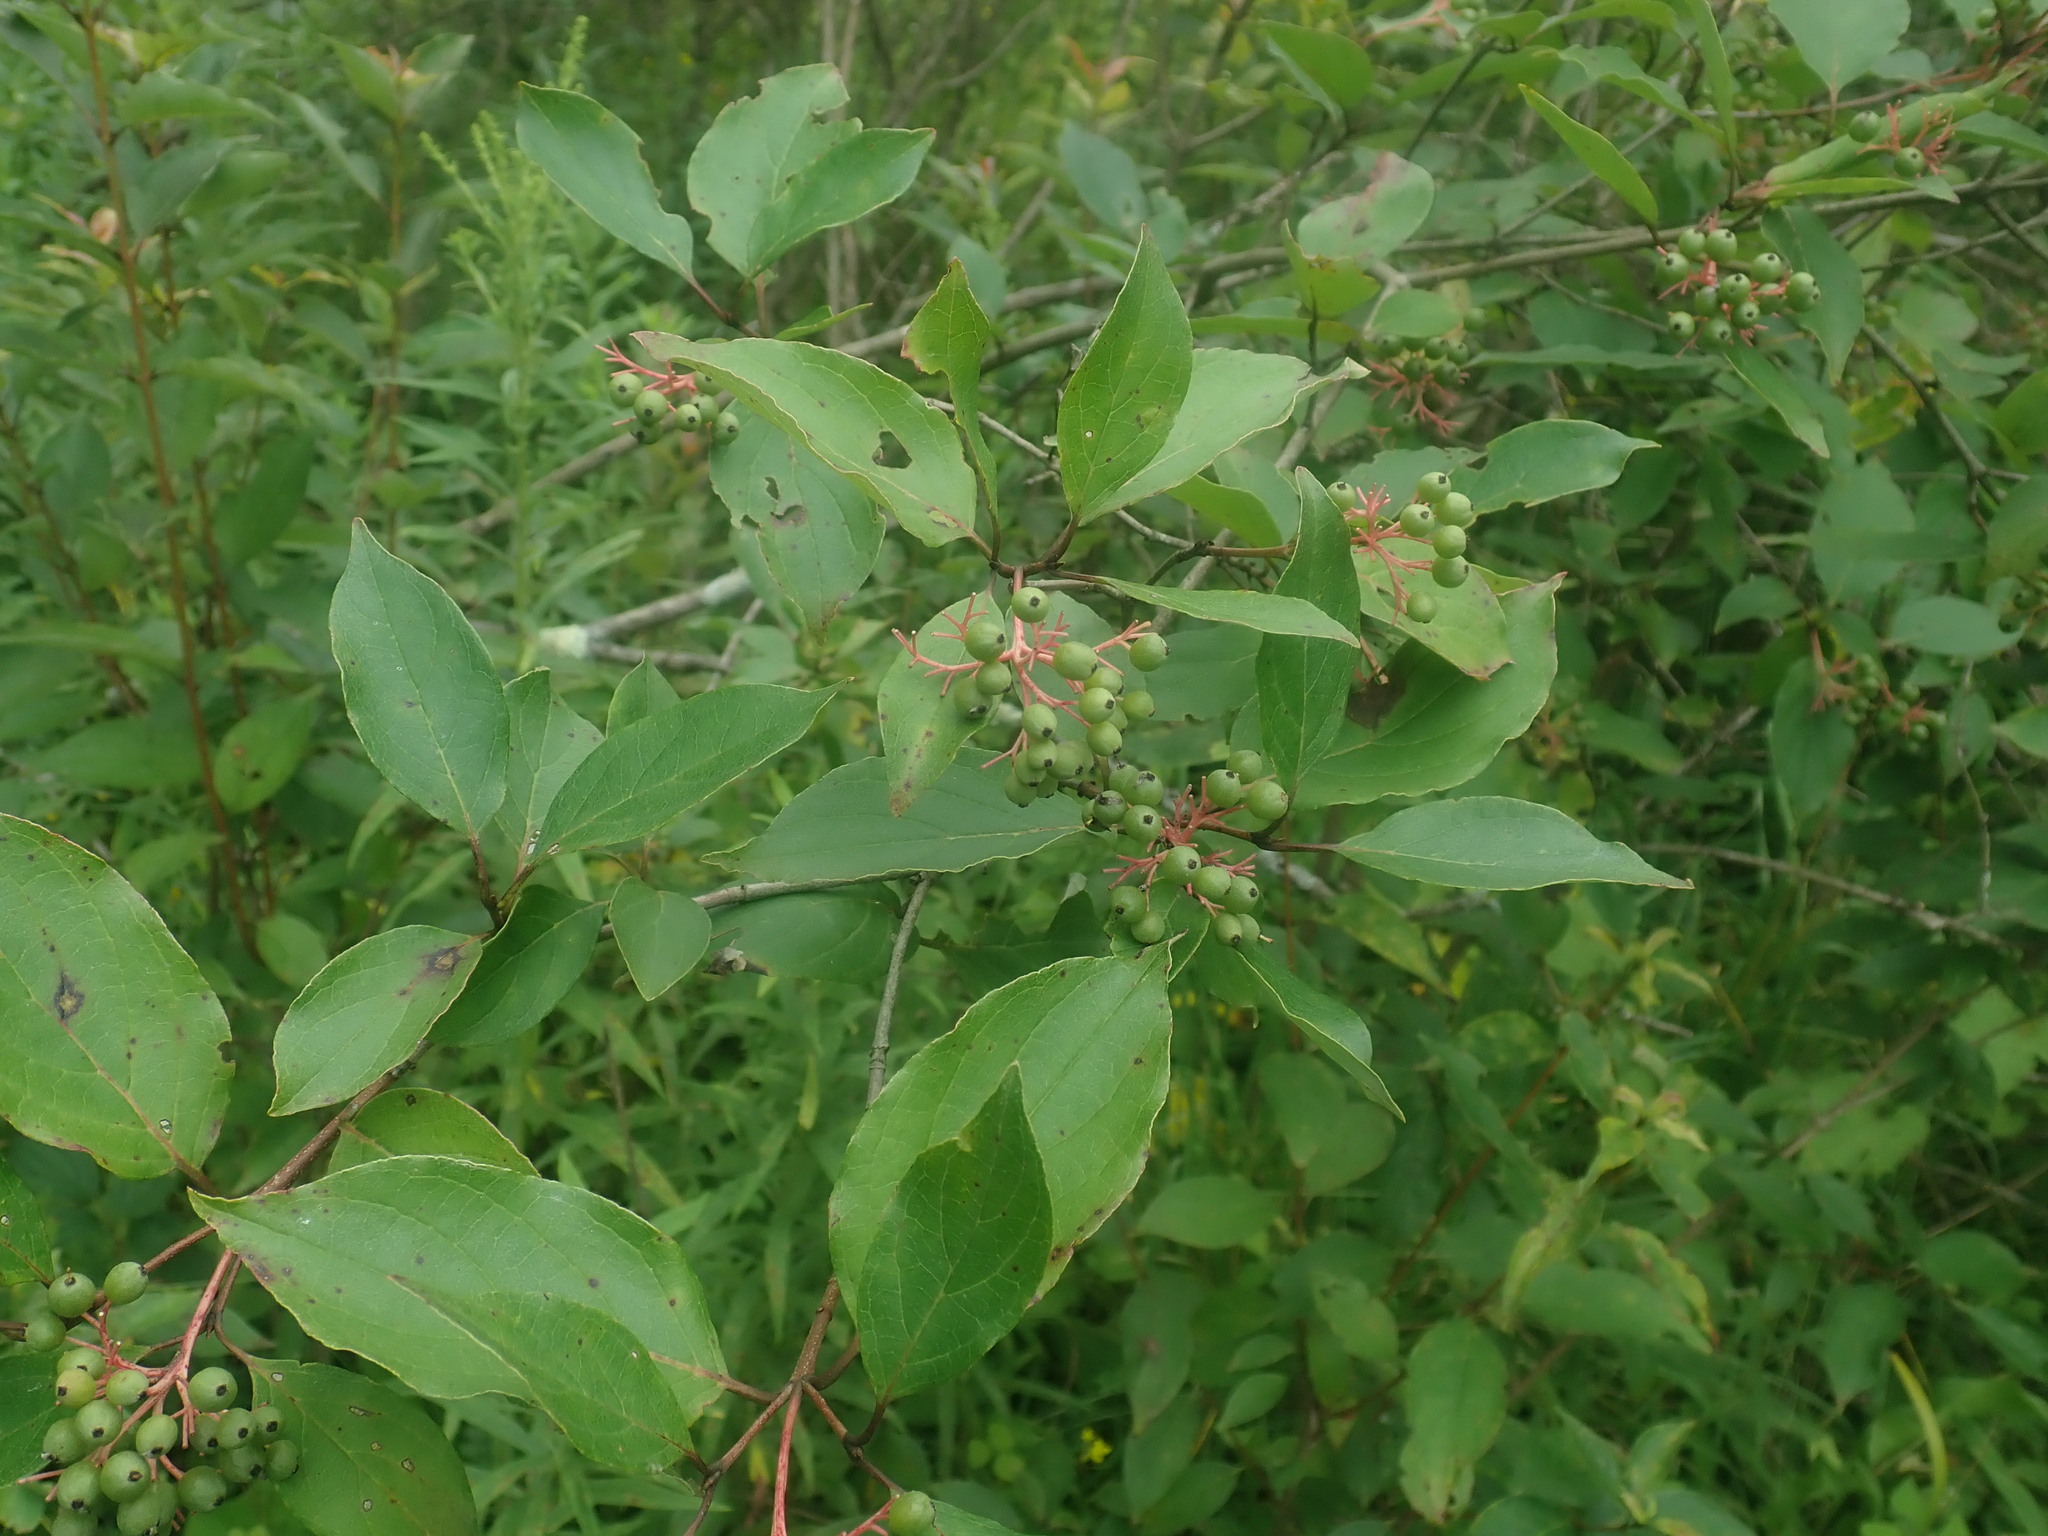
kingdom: Plantae
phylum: Tracheophyta
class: Magnoliopsida
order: Cornales
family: Cornaceae
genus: Cornus
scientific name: Cornus racemosa
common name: Panicled dogwood
